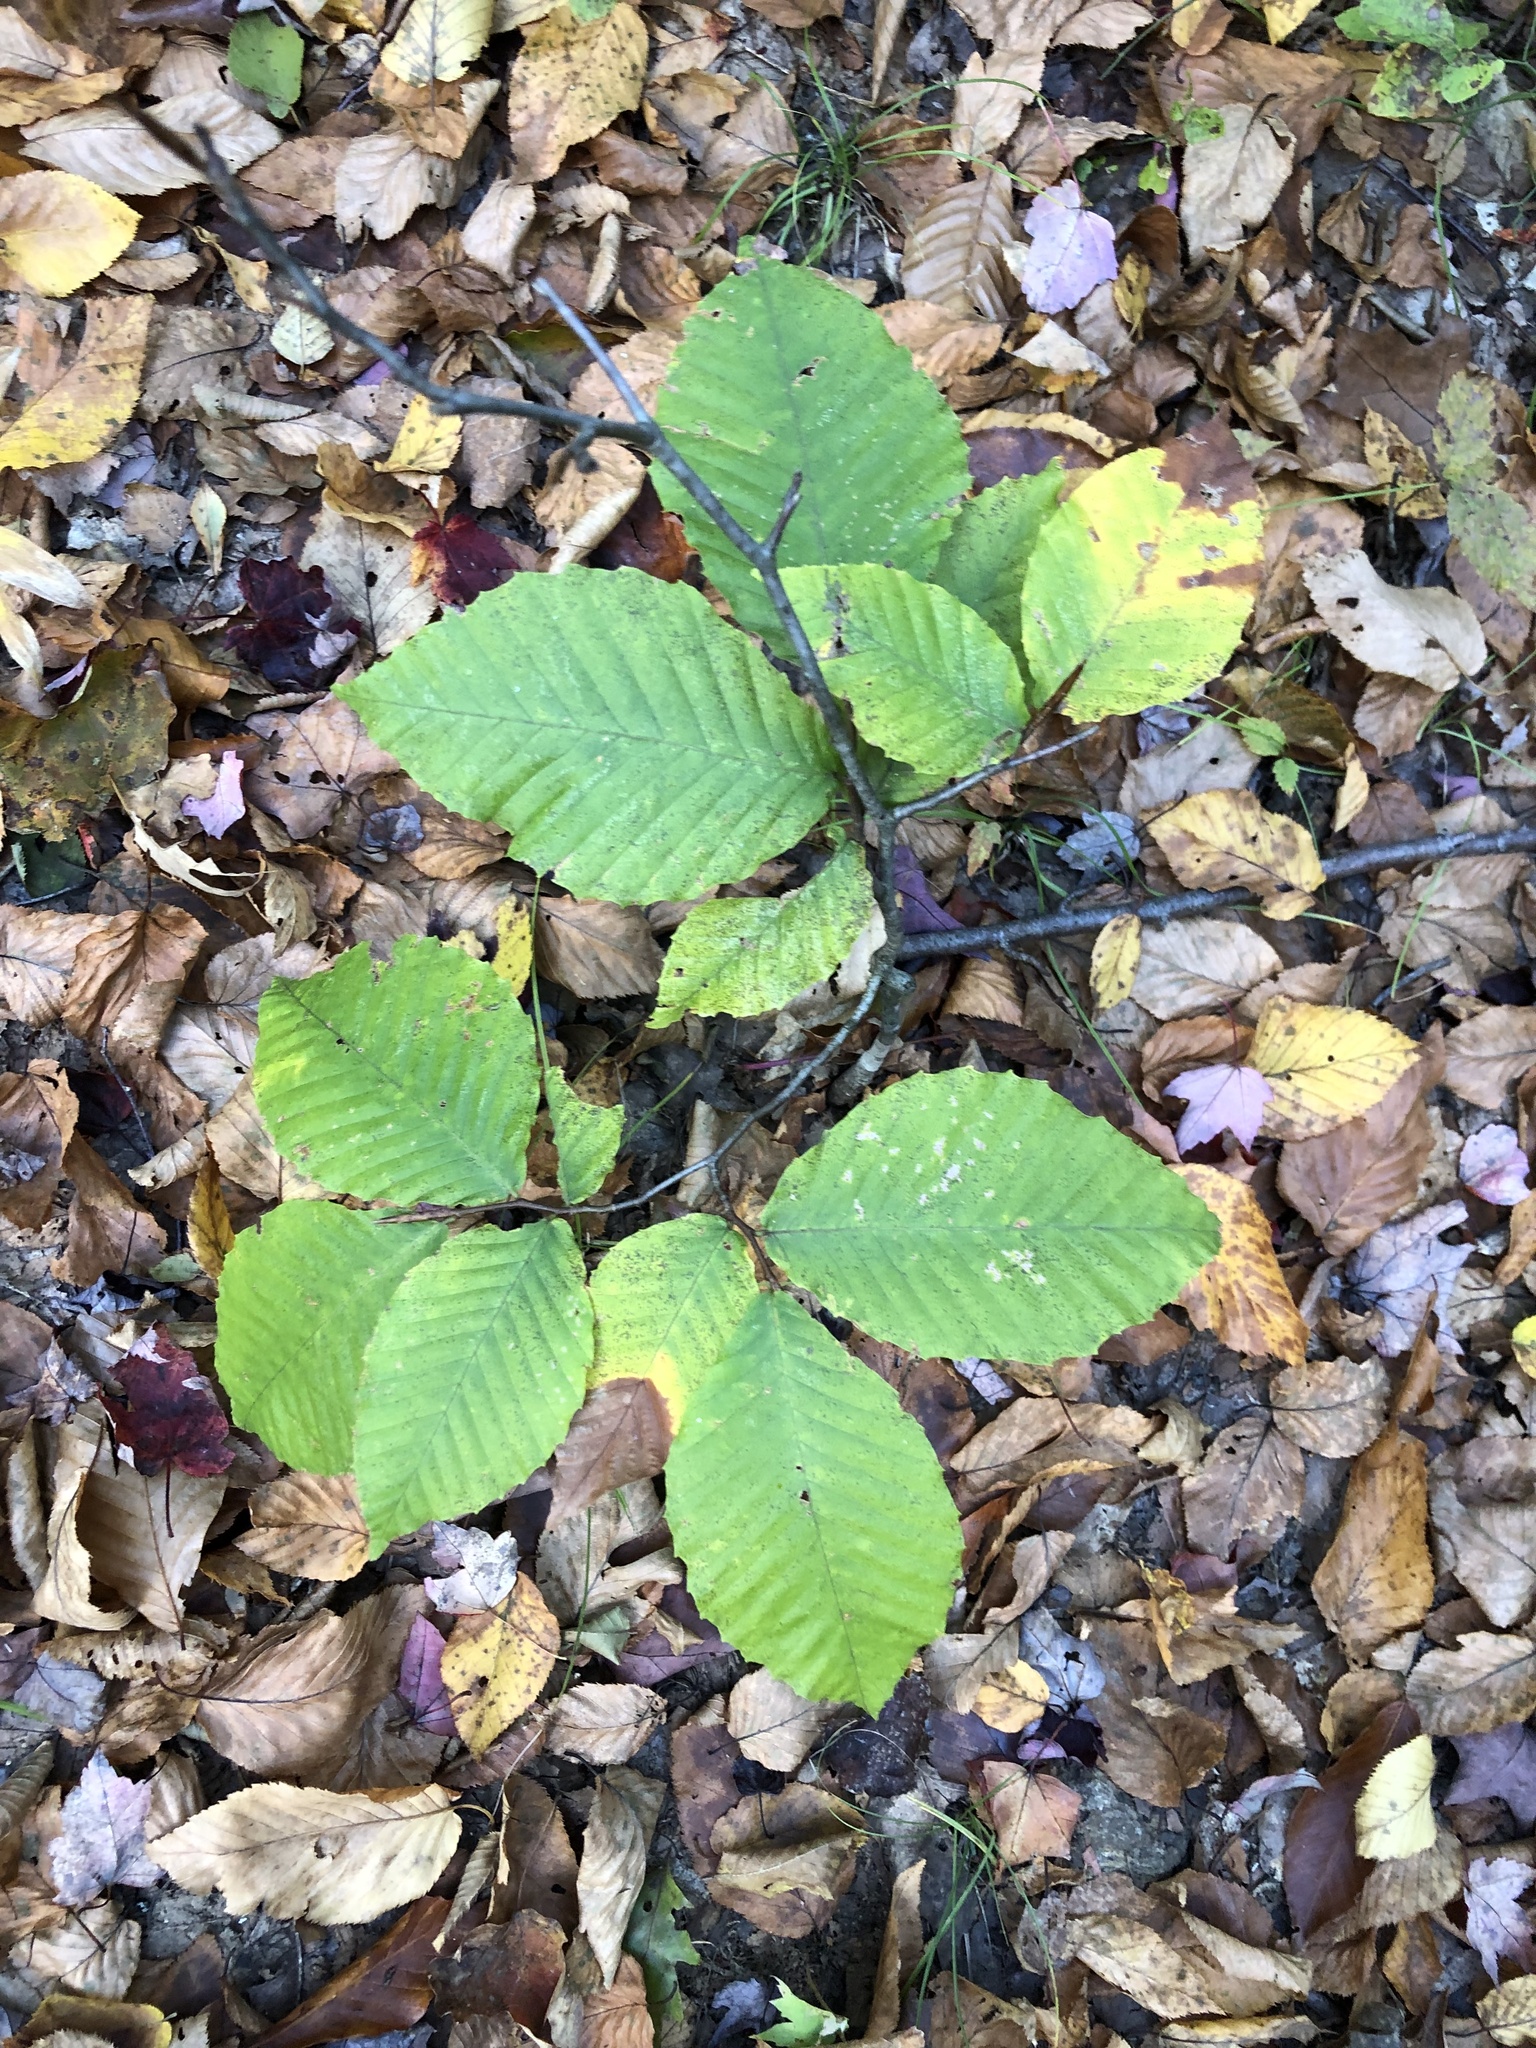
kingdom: Plantae
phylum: Tracheophyta
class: Magnoliopsida
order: Fagales
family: Fagaceae
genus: Fagus
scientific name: Fagus grandifolia
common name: American beech
